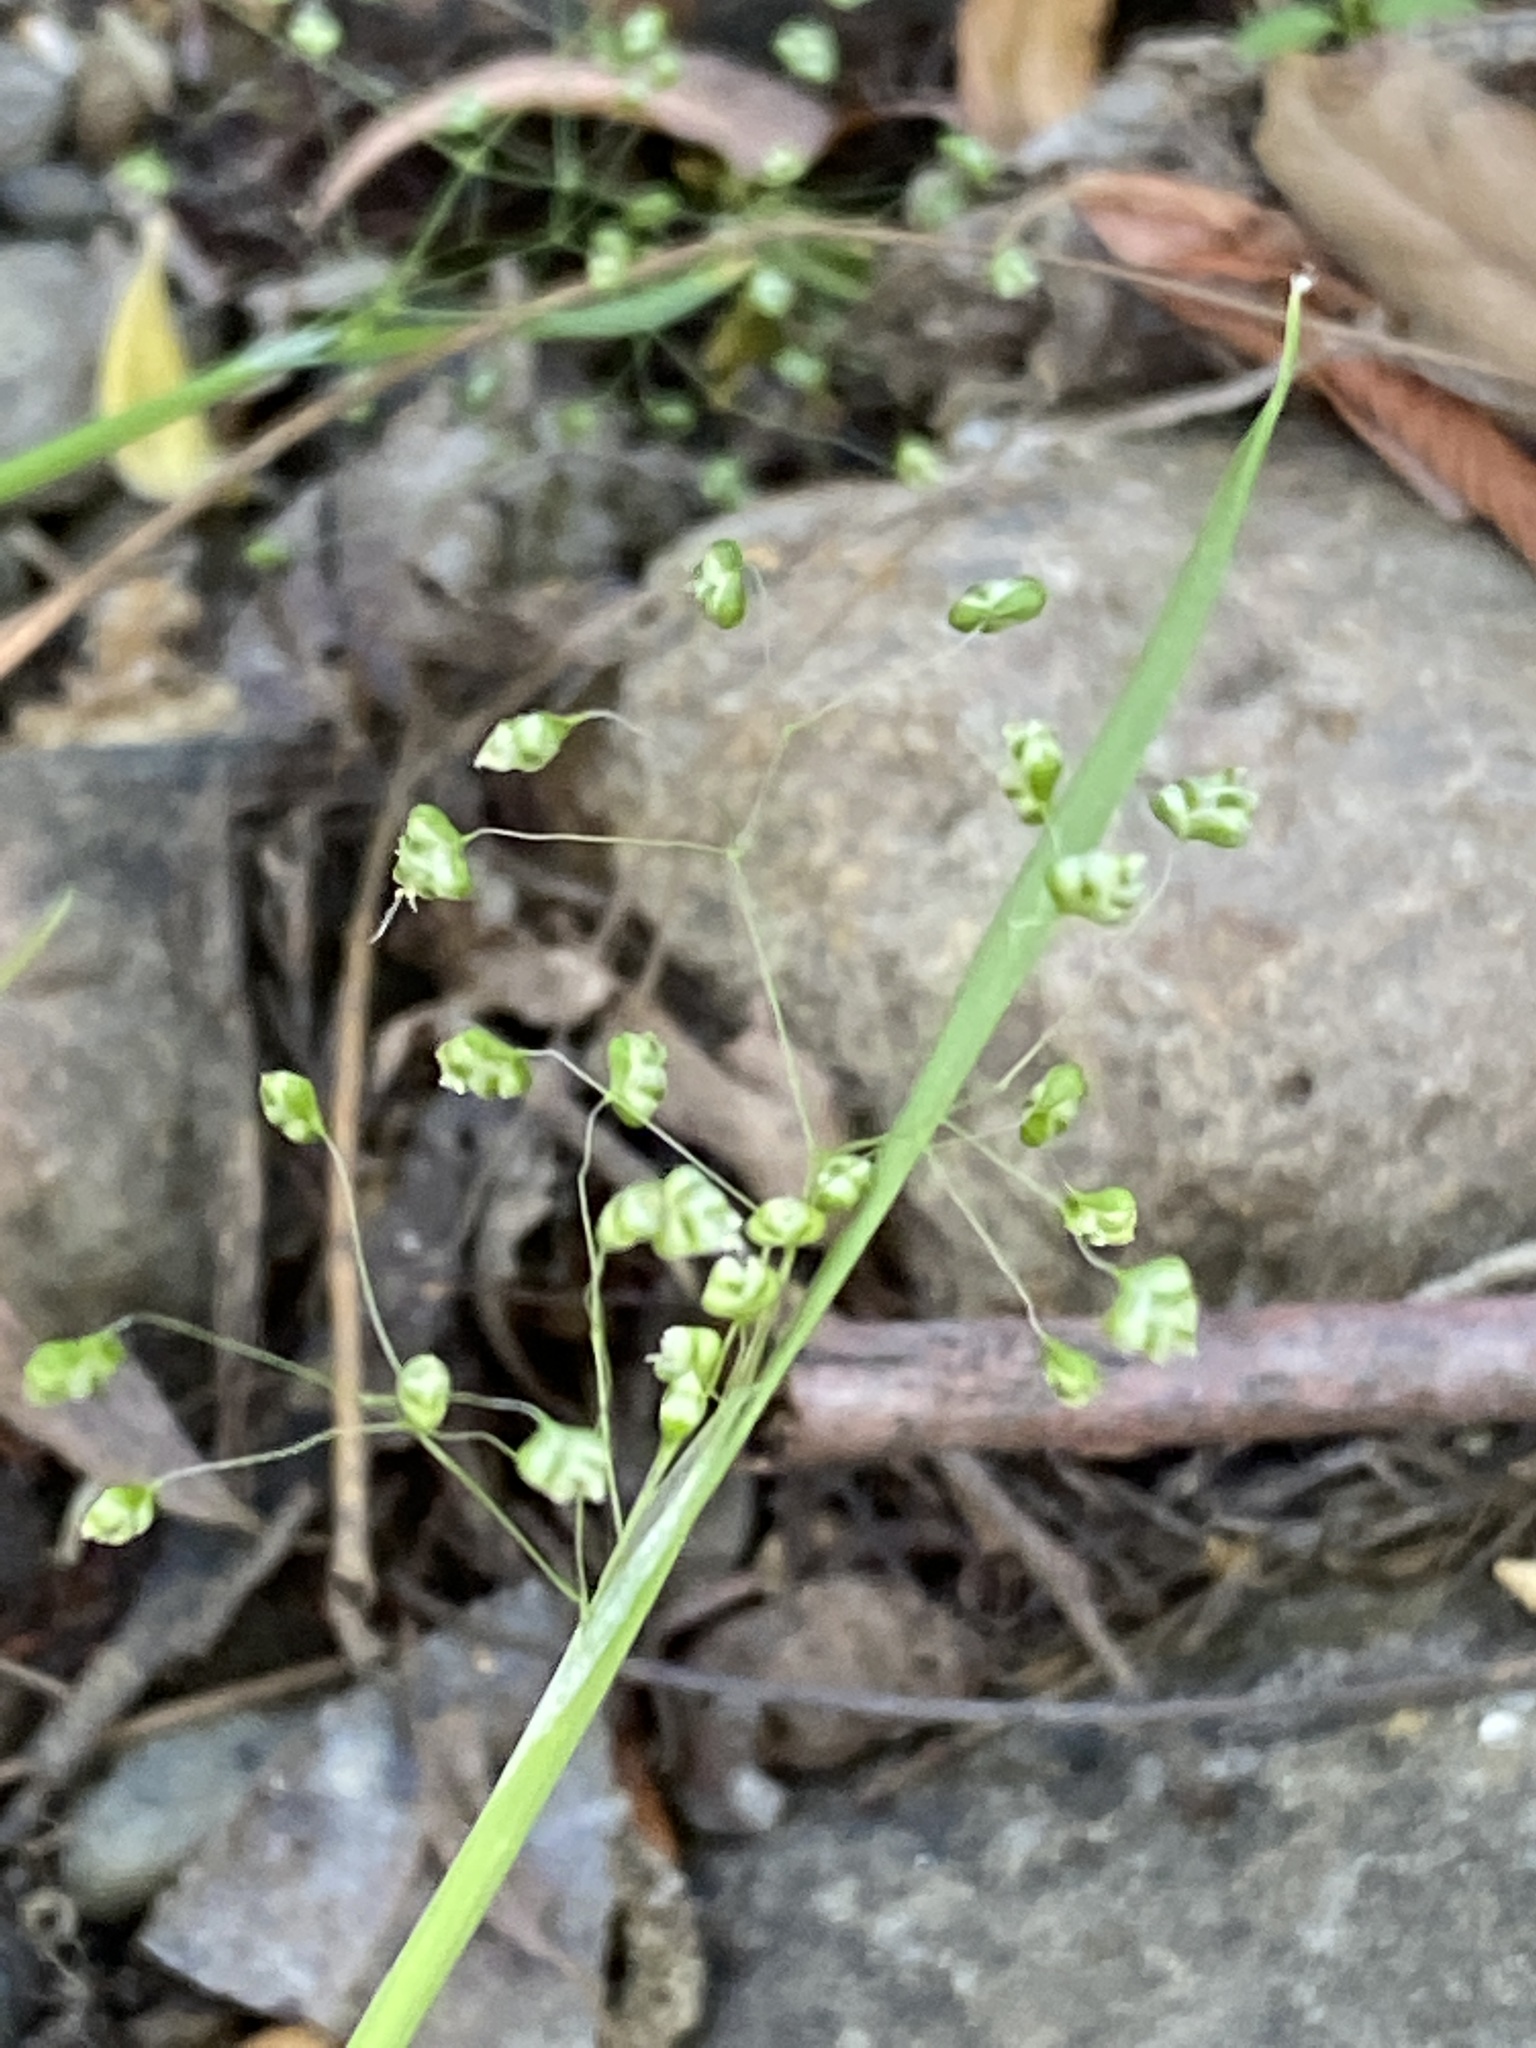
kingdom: Plantae
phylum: Tracheophyta
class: Liliopsida
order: Poales
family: Poaceae
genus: Briza
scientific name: Briza minor
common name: Lesser quaking-grass
